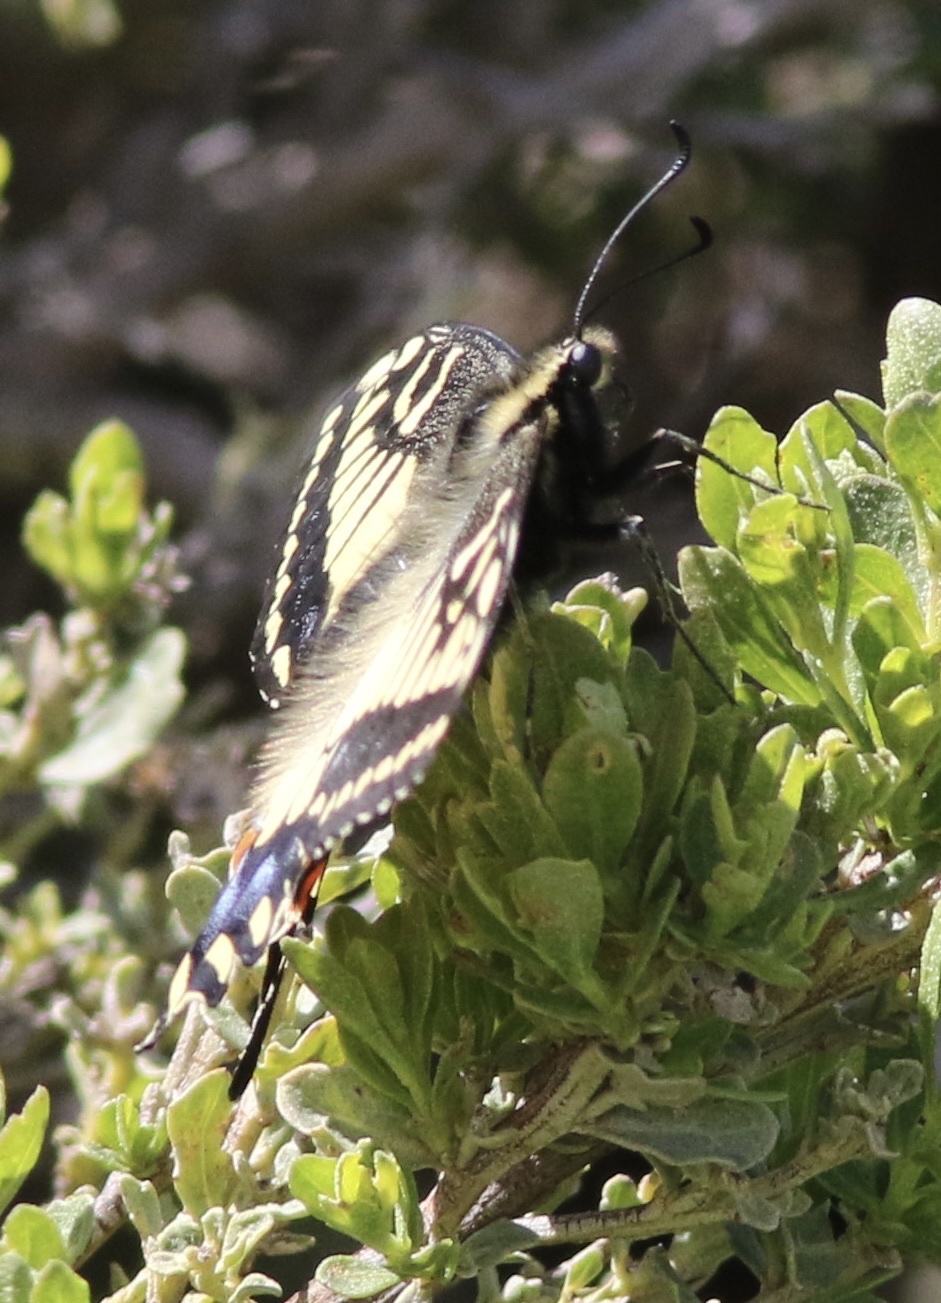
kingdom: Animalia
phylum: Arthropoda
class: Insecta
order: Lepidoptera
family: Papilionidae
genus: Papilio
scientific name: Papilio zelicaon
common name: Anise swallowtail
